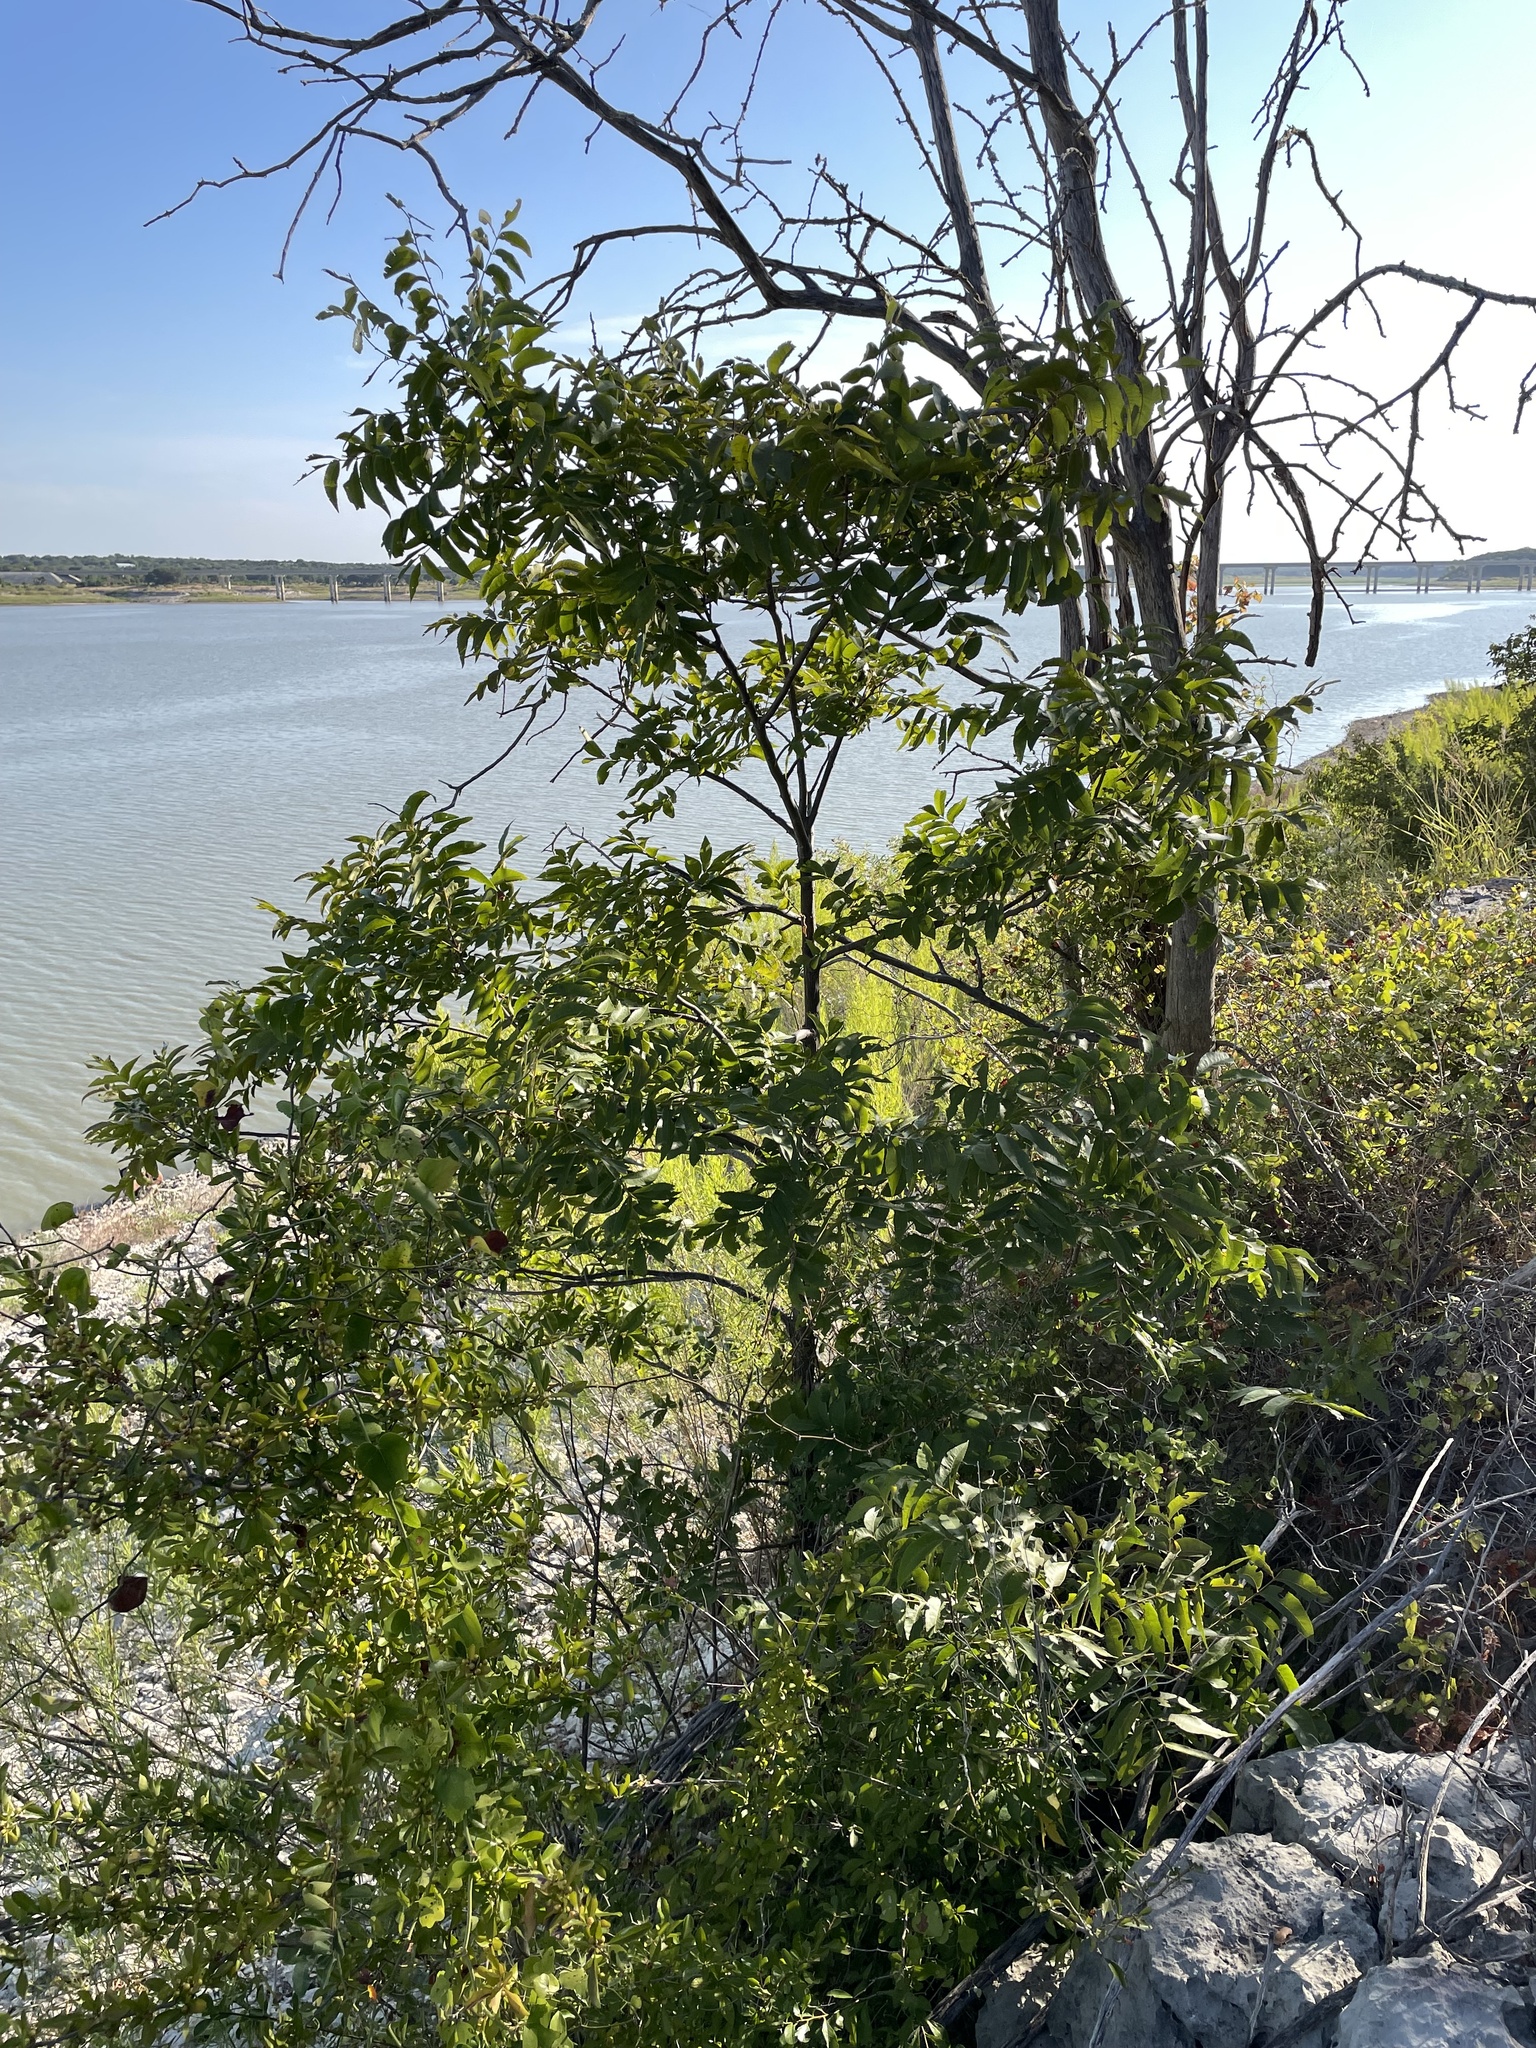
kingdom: Plantae
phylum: Tracheophyta
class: Magnoliopsida
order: Fagales
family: Juglandaceae
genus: Carya
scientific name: Carya illinoinensis
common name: Pecan
